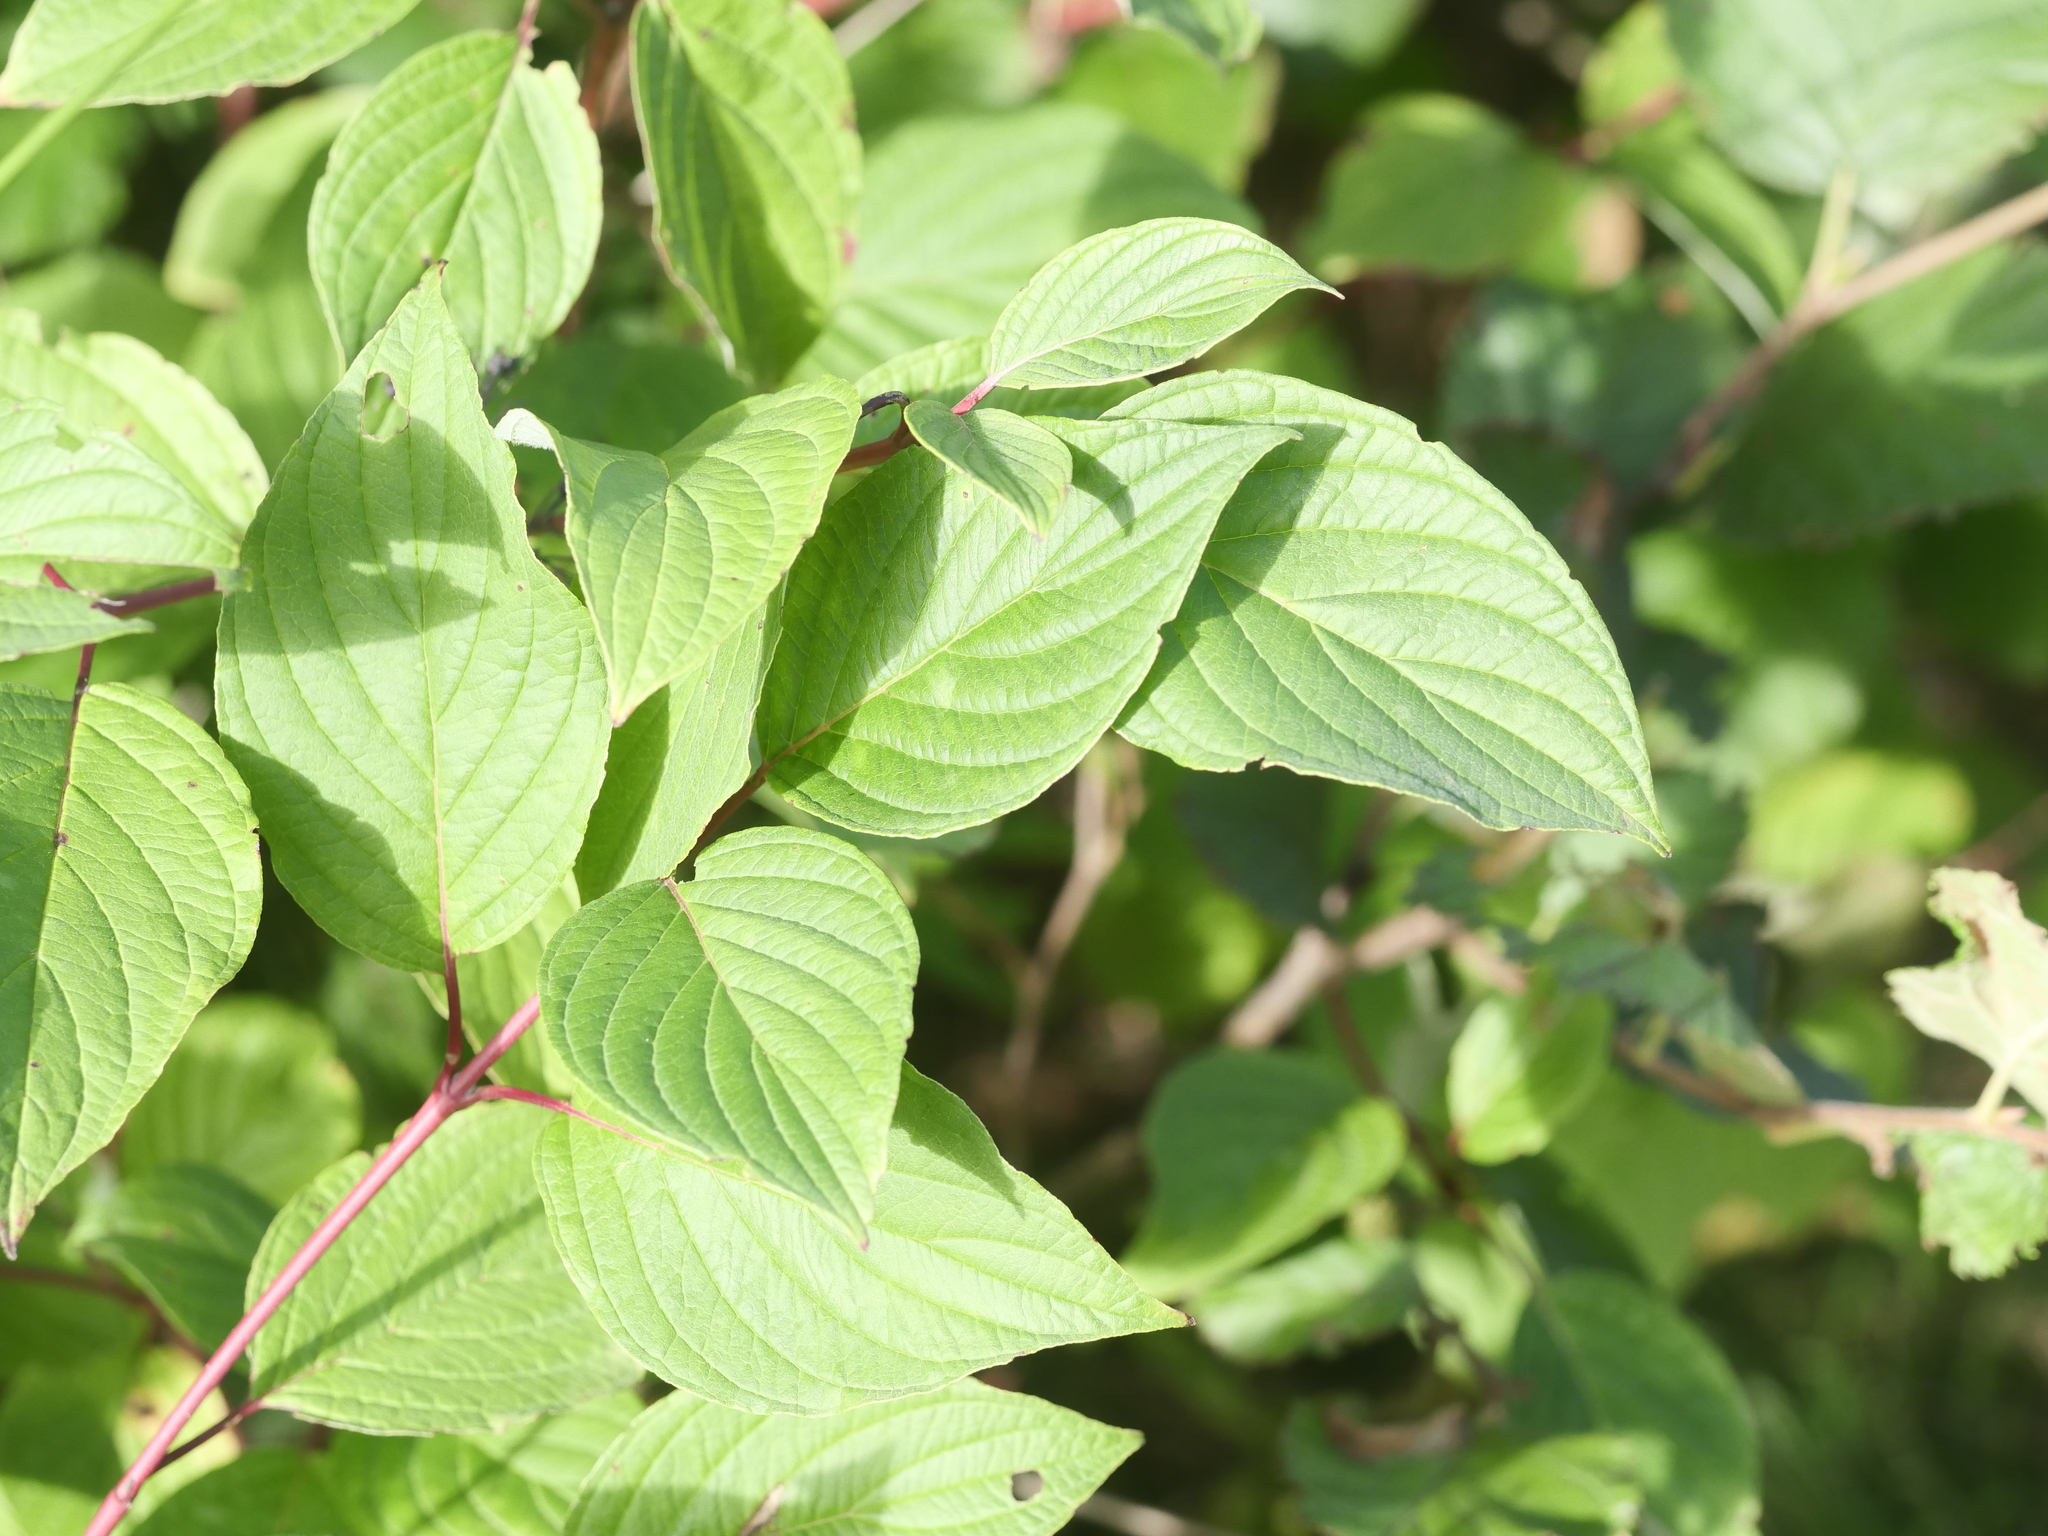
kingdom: Plantae
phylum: Tracheophyta
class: Magnoliopsida
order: Cornales
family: Cornaceae
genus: Cornus
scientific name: Cornus sericea
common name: Red-osier dogwood
